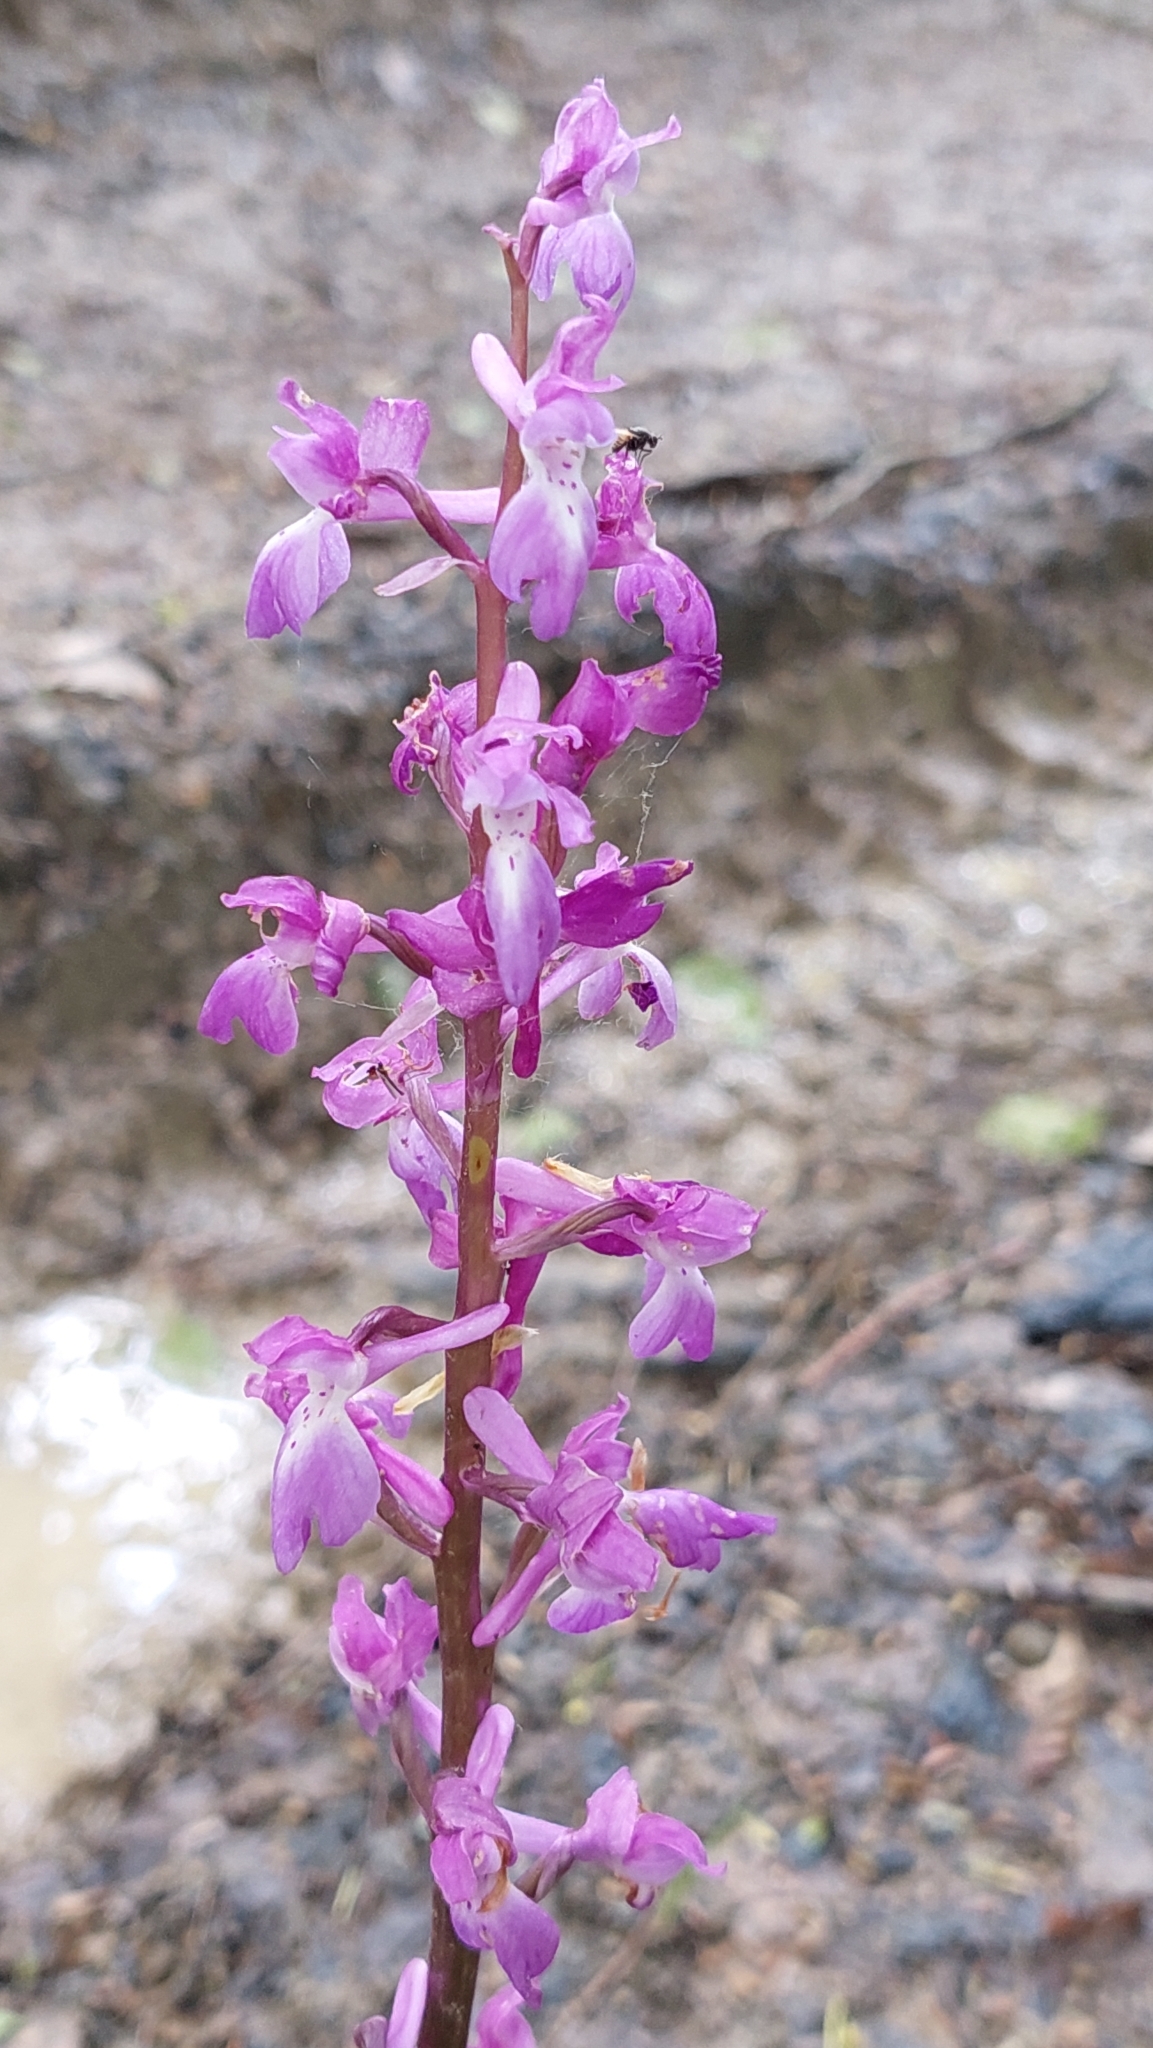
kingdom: Plantae
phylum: Tracheophyta
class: Liliopsida
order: Asparagales
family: Orchidaceae
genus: Orchis
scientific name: Orchis mascula
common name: Early-purple orchid
